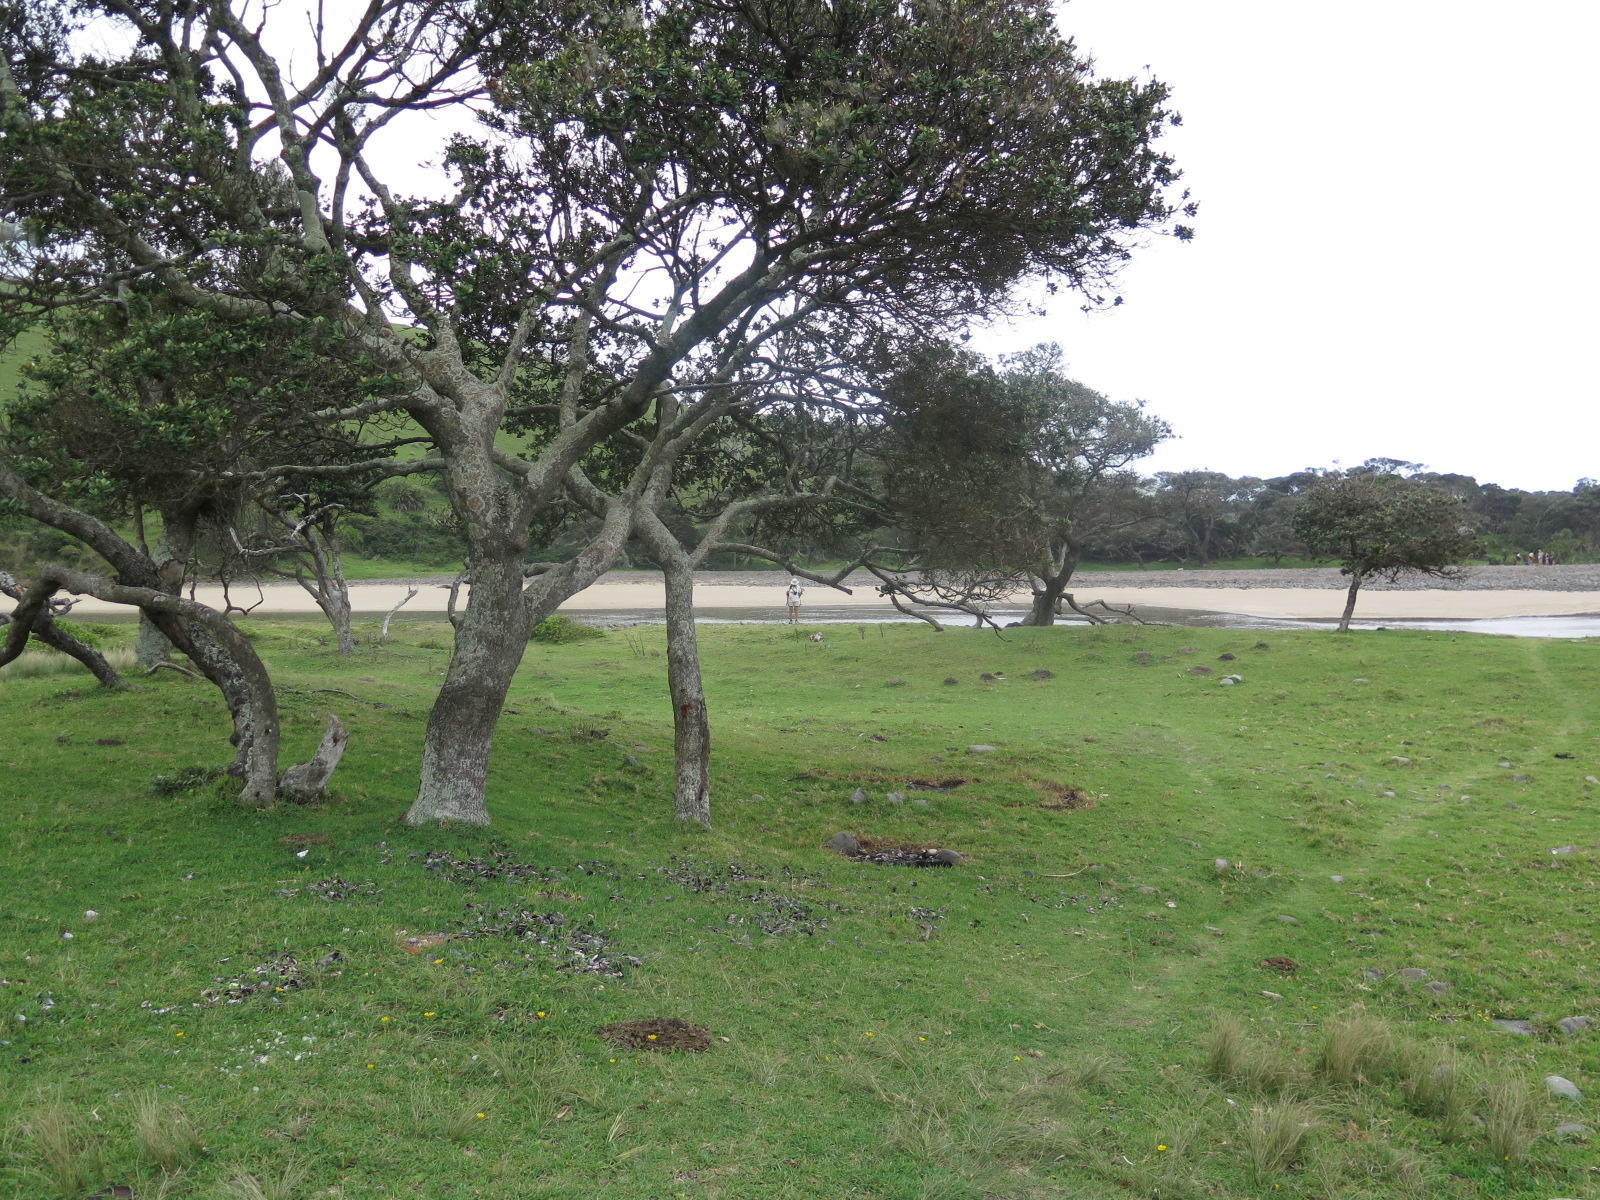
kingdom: Plantae
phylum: Tracheophyta
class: Liliopsida
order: Poales
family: Poaceae
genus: Stenotaphrum
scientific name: Stenotaphrum secundatum
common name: St. augustine grass
